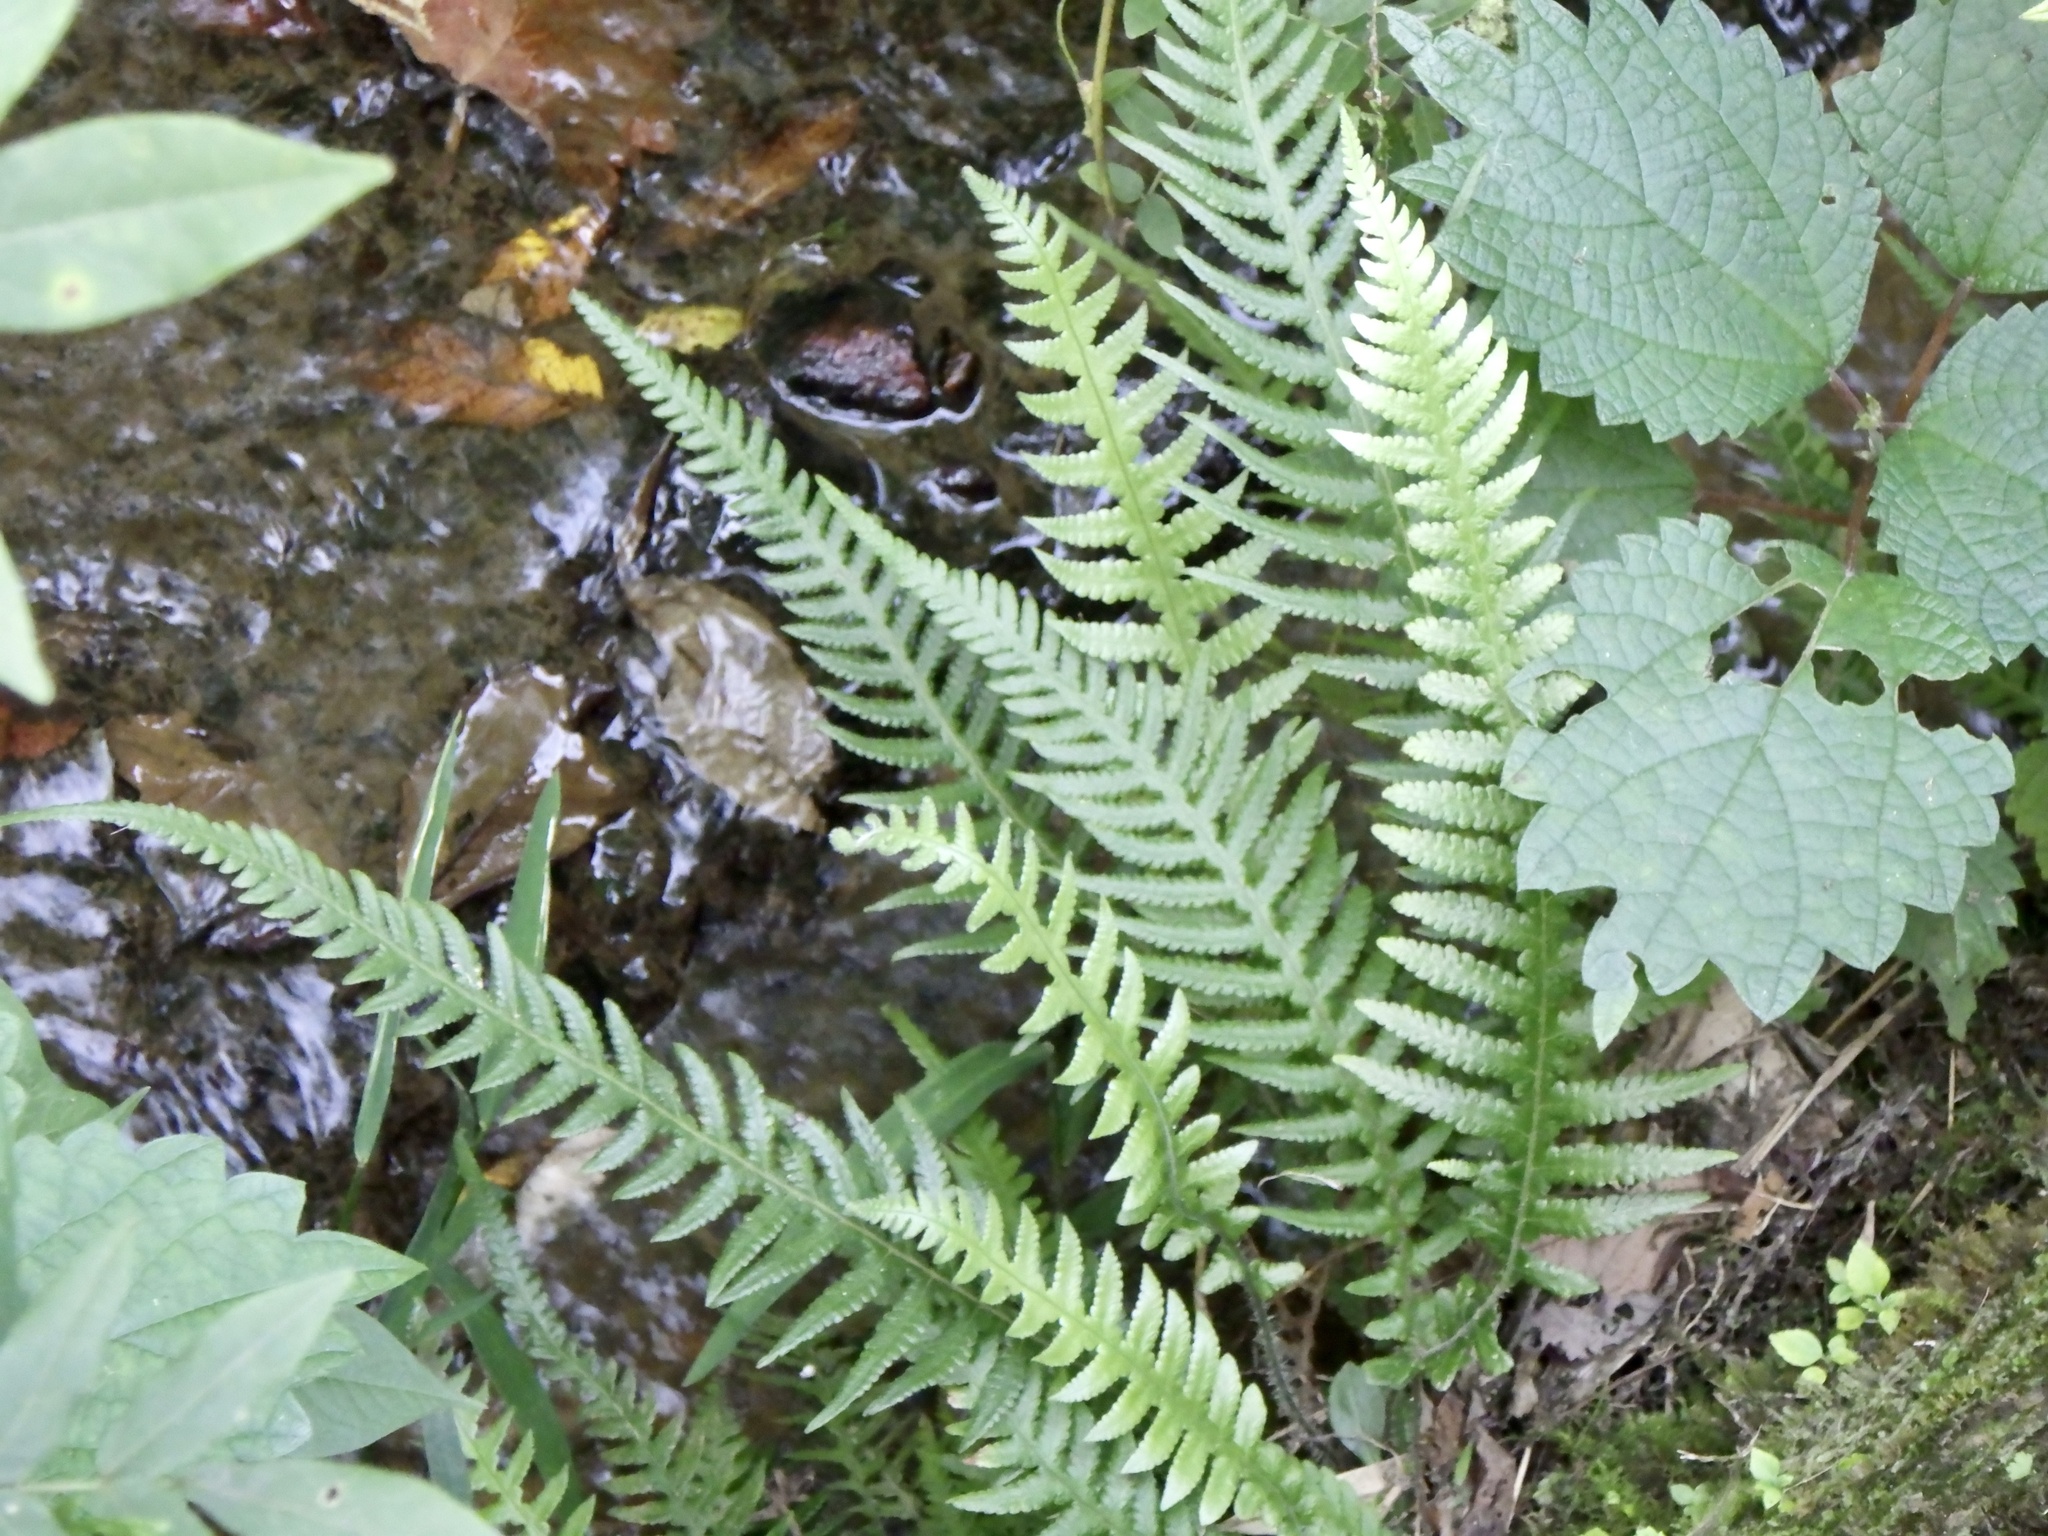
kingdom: Plantae
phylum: Tracheophyta
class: Polypodiopsida
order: Polypodiales
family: Thelypteridaceae
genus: Phegopteris
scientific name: Phegopteris decursive-pinnata
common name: Japanese beech fern
